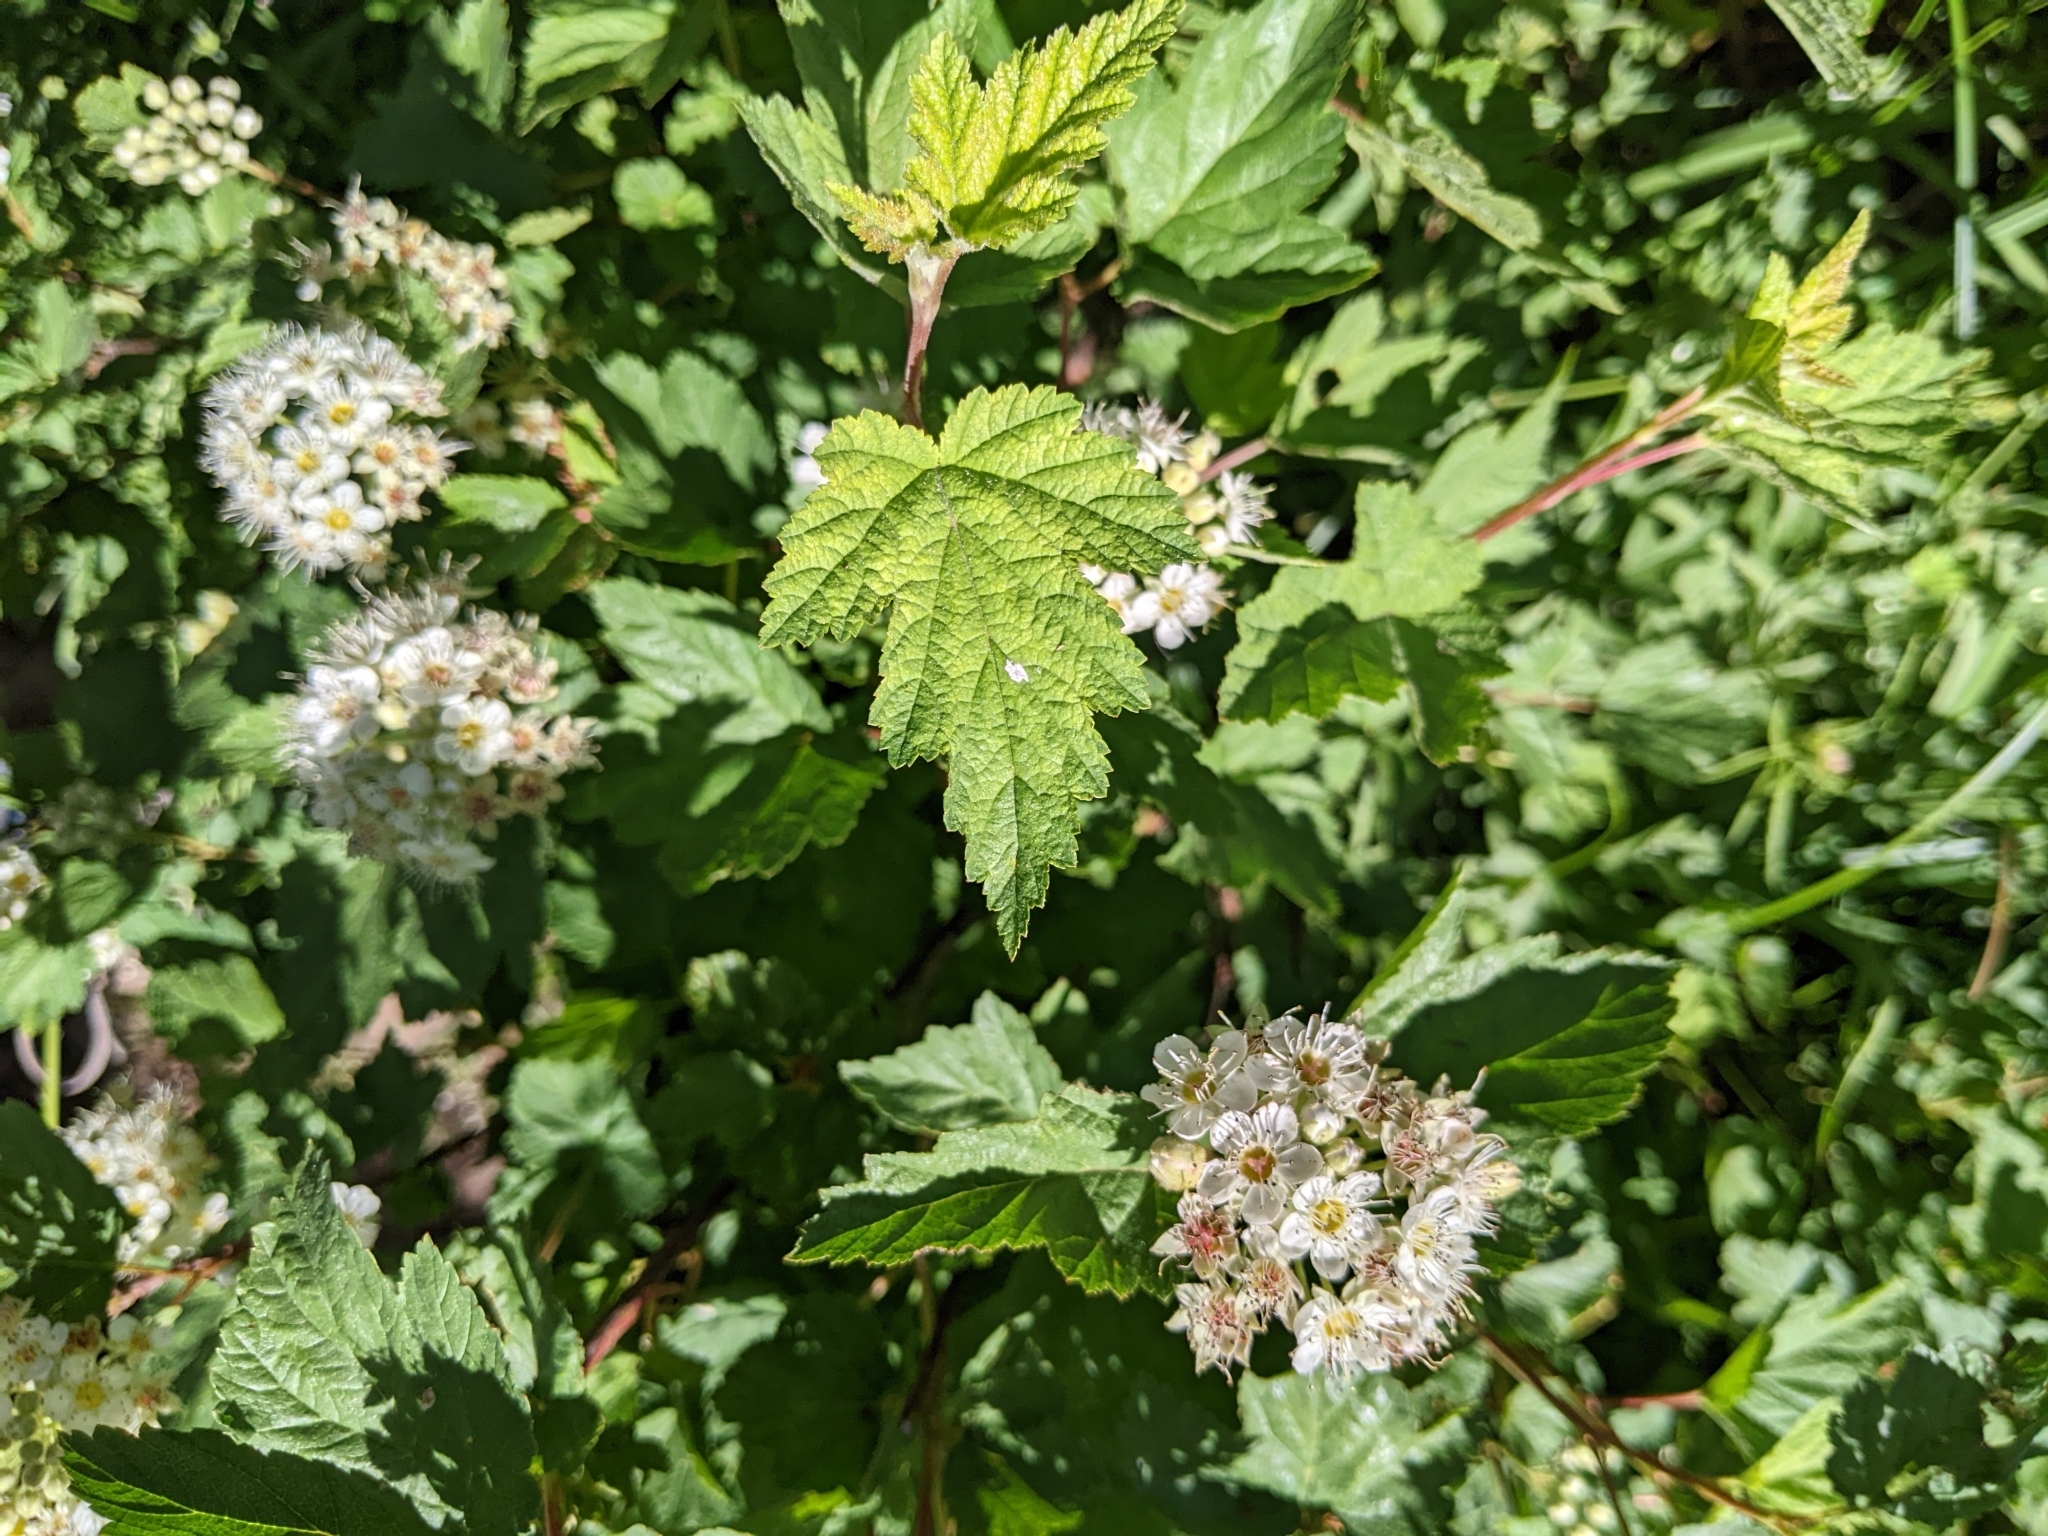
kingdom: Plantae
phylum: Tracheophyta
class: Magnoliopsida
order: Rosales
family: Rosaceae
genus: Physocarpus
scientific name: Physocarpus capitatus
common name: Pacific ninebark
